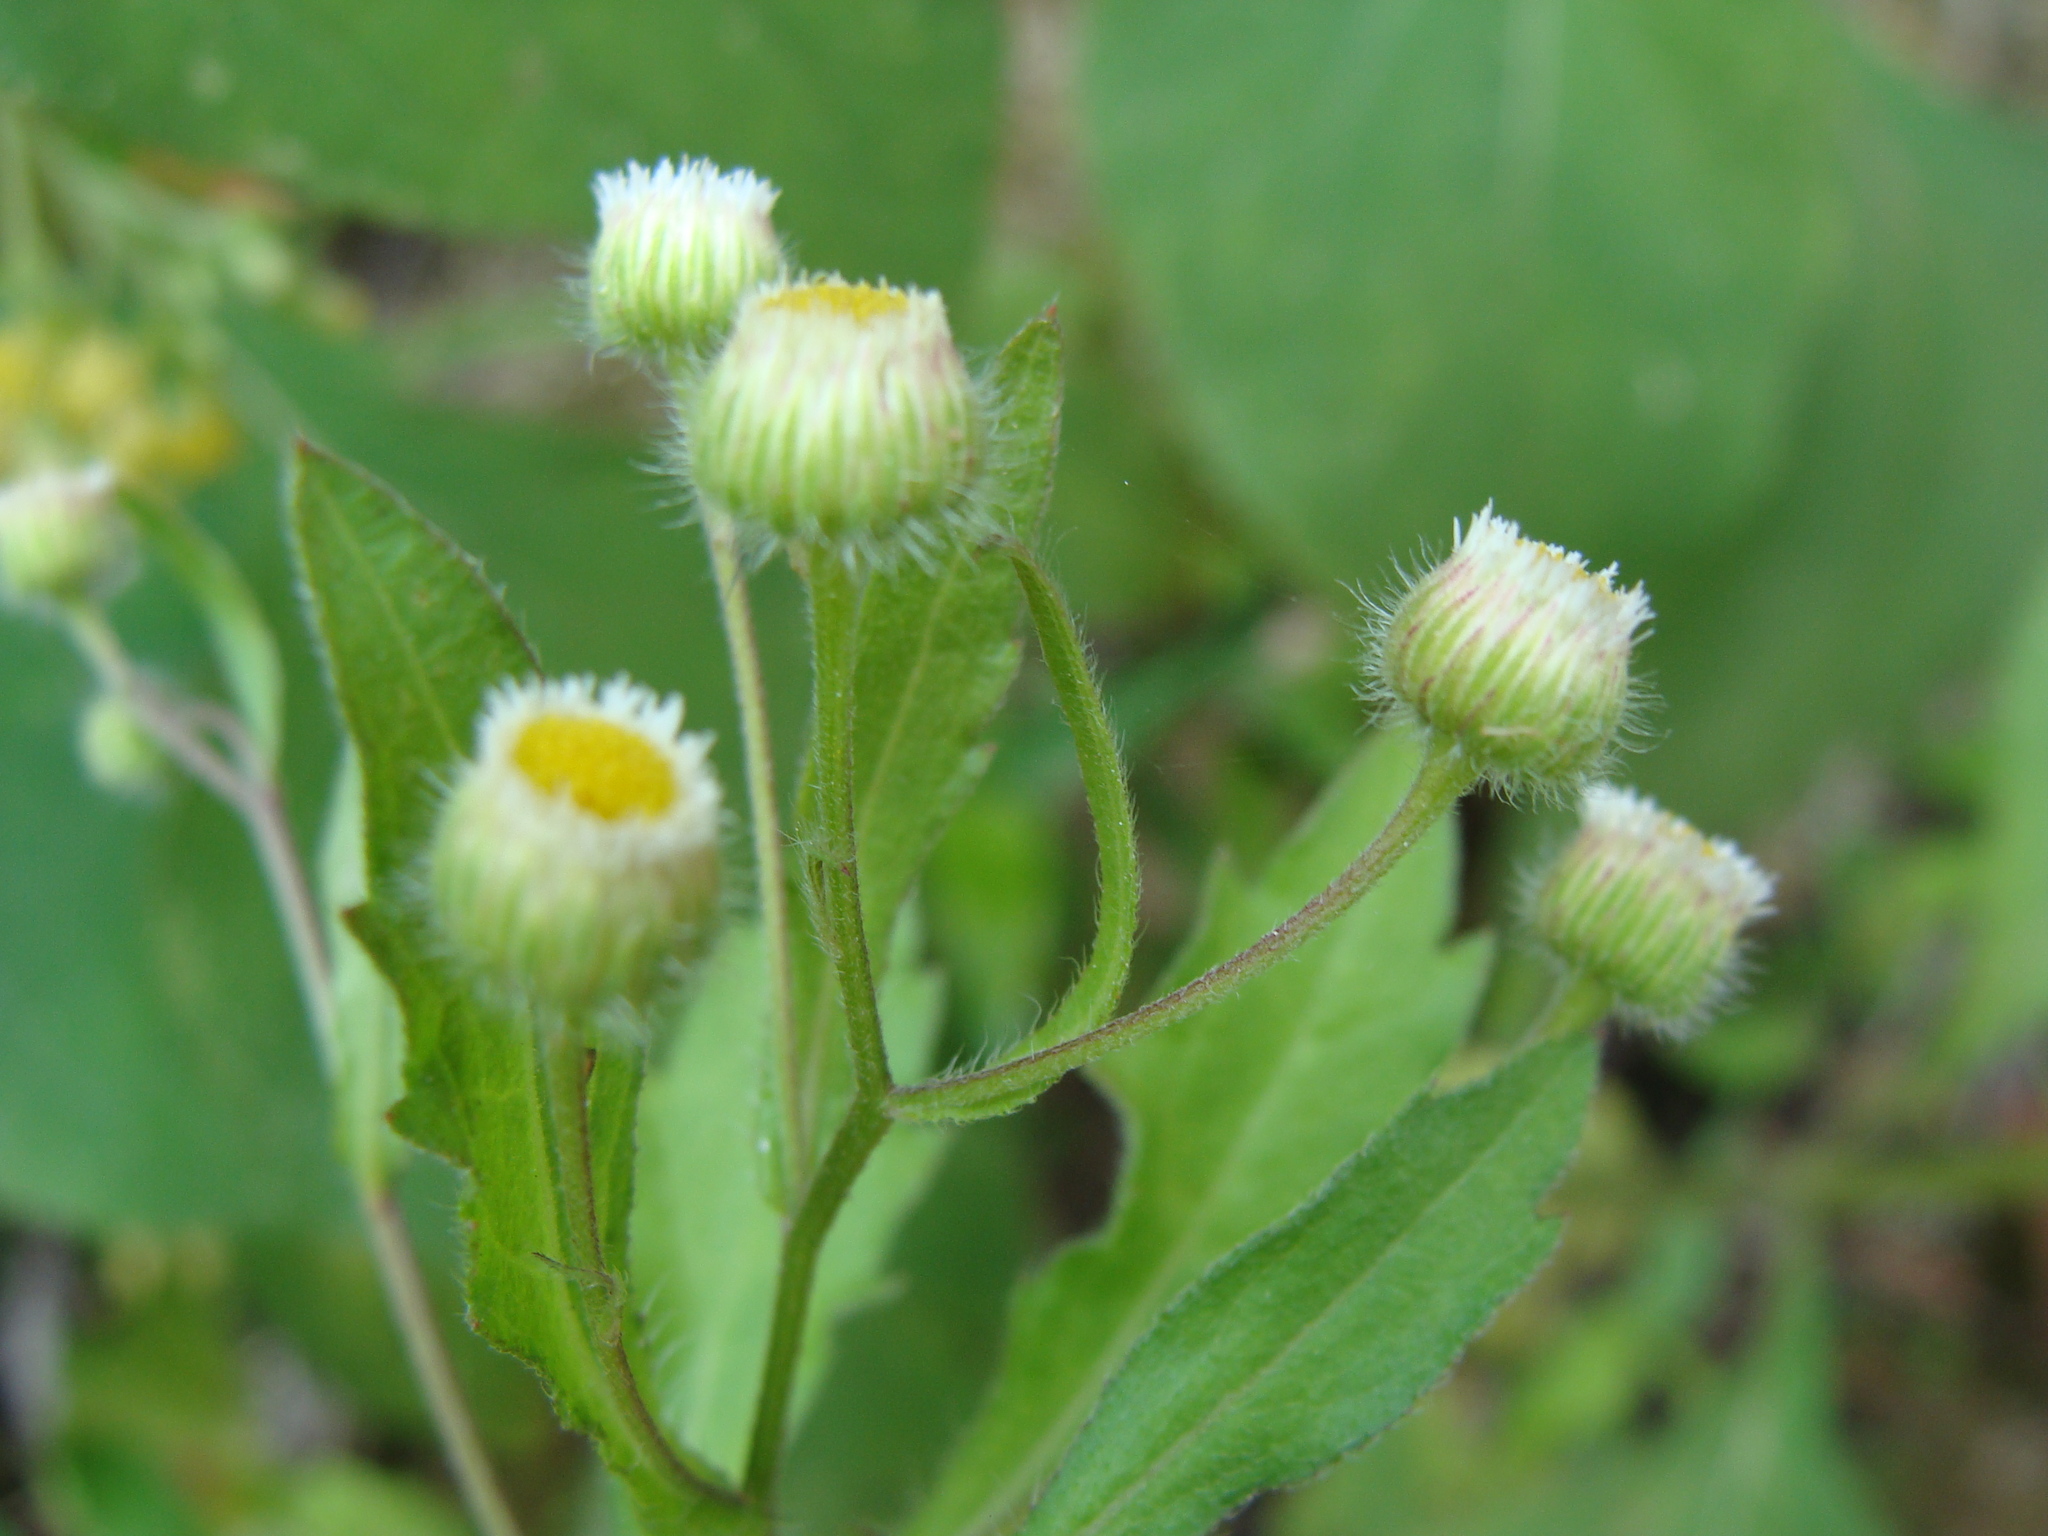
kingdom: Plantae
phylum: Tracheophyta
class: Magnoliopsida
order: Asterales
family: Asteraceae
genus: Erigeron
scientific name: Erigeron laevigatus
